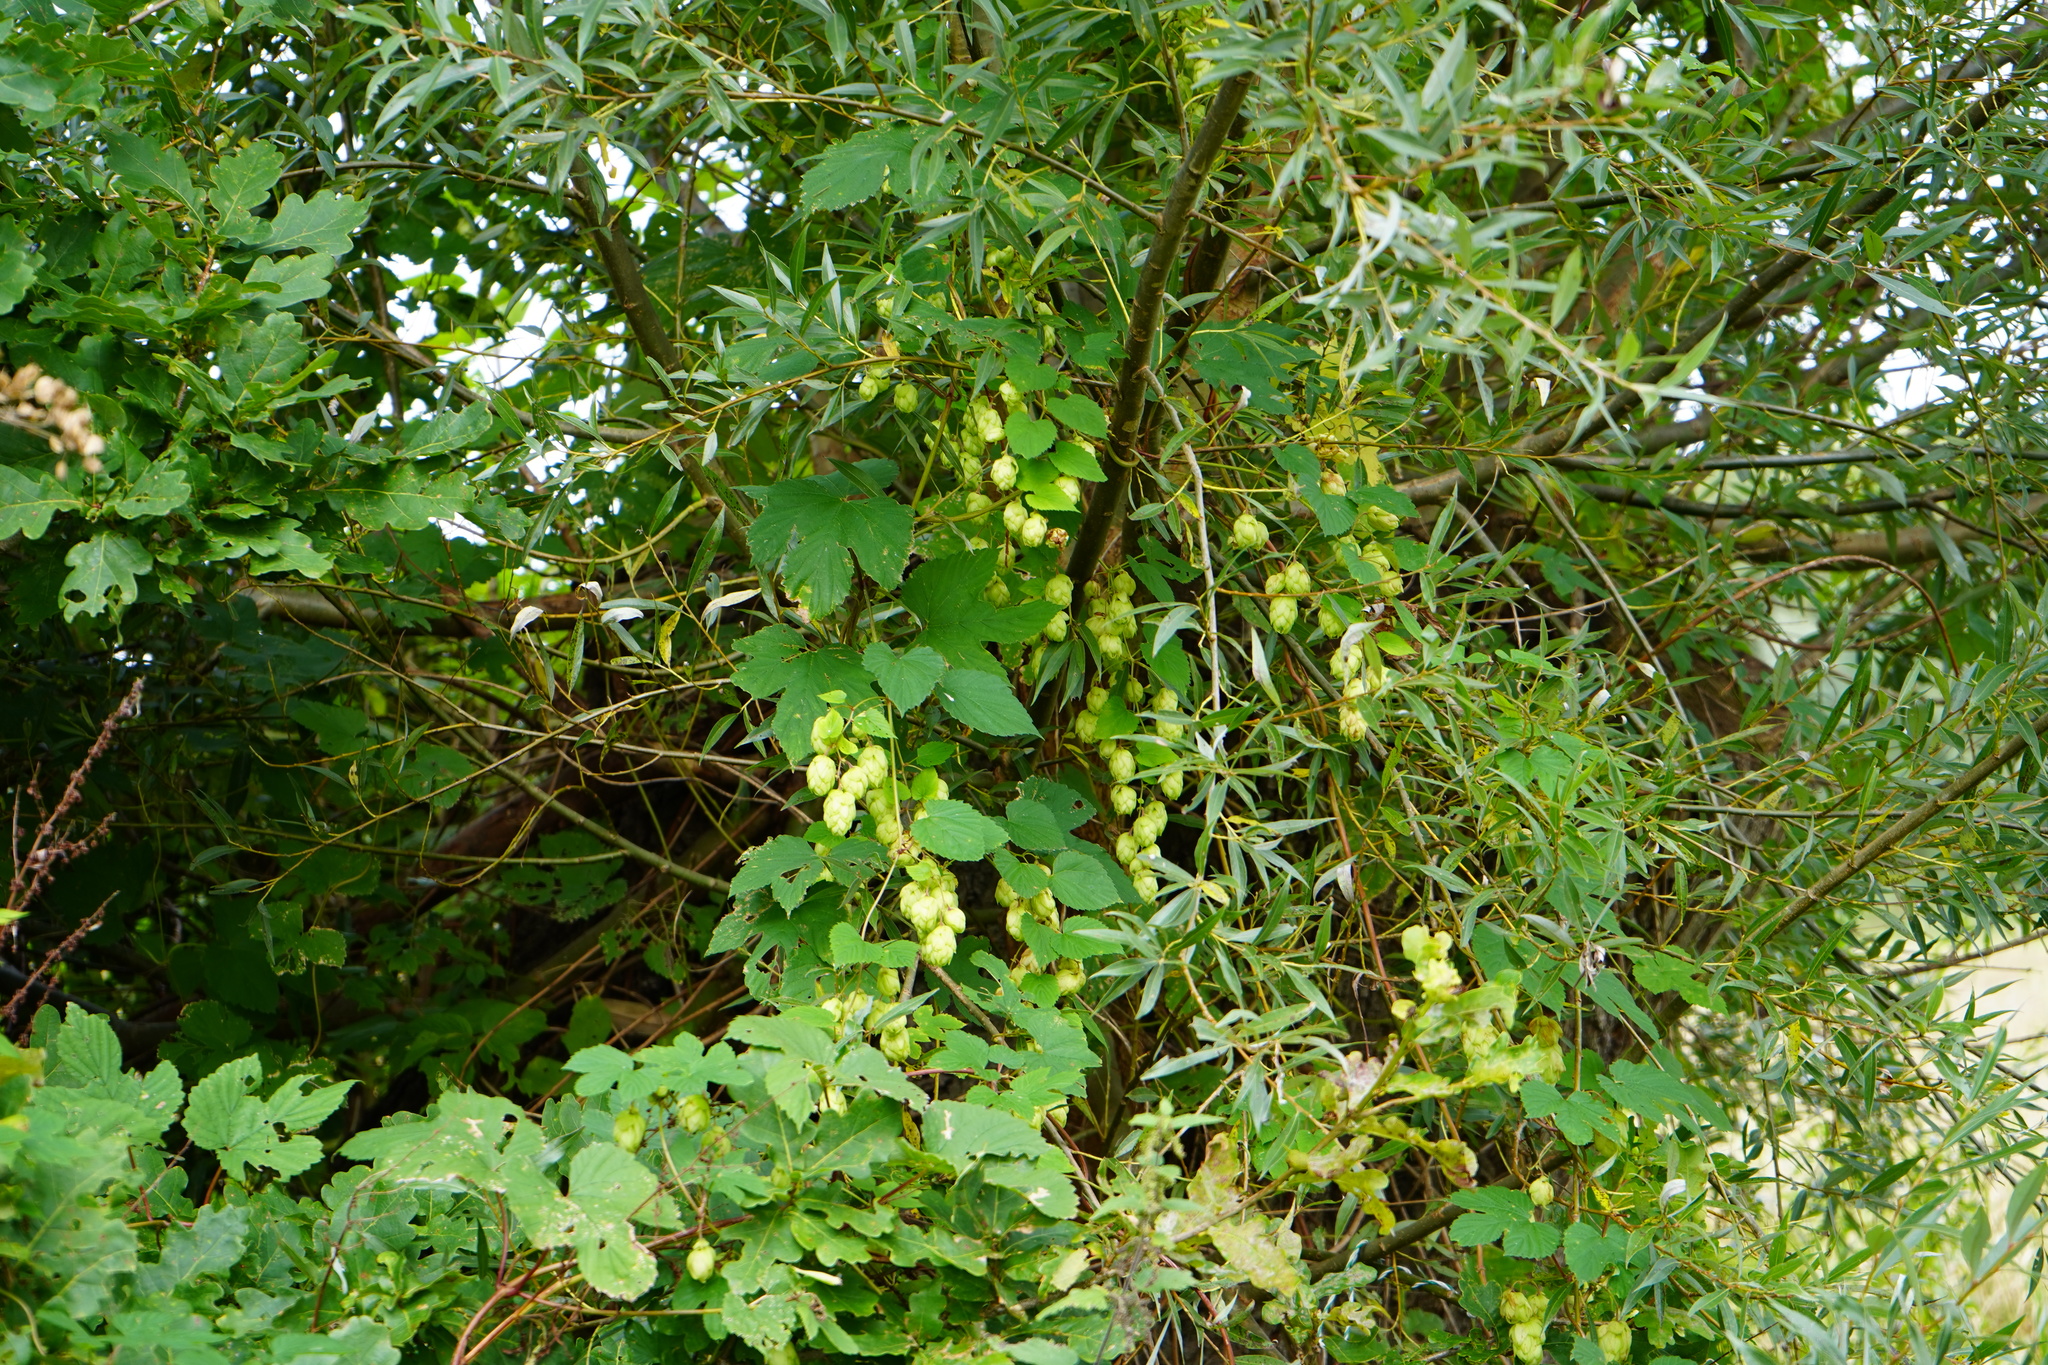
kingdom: Plantae
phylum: Tracheophyta
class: Magnoliopsida
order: Rosales
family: Cannabaceae
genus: Humulus
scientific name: Humulus lupulus
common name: Hop
